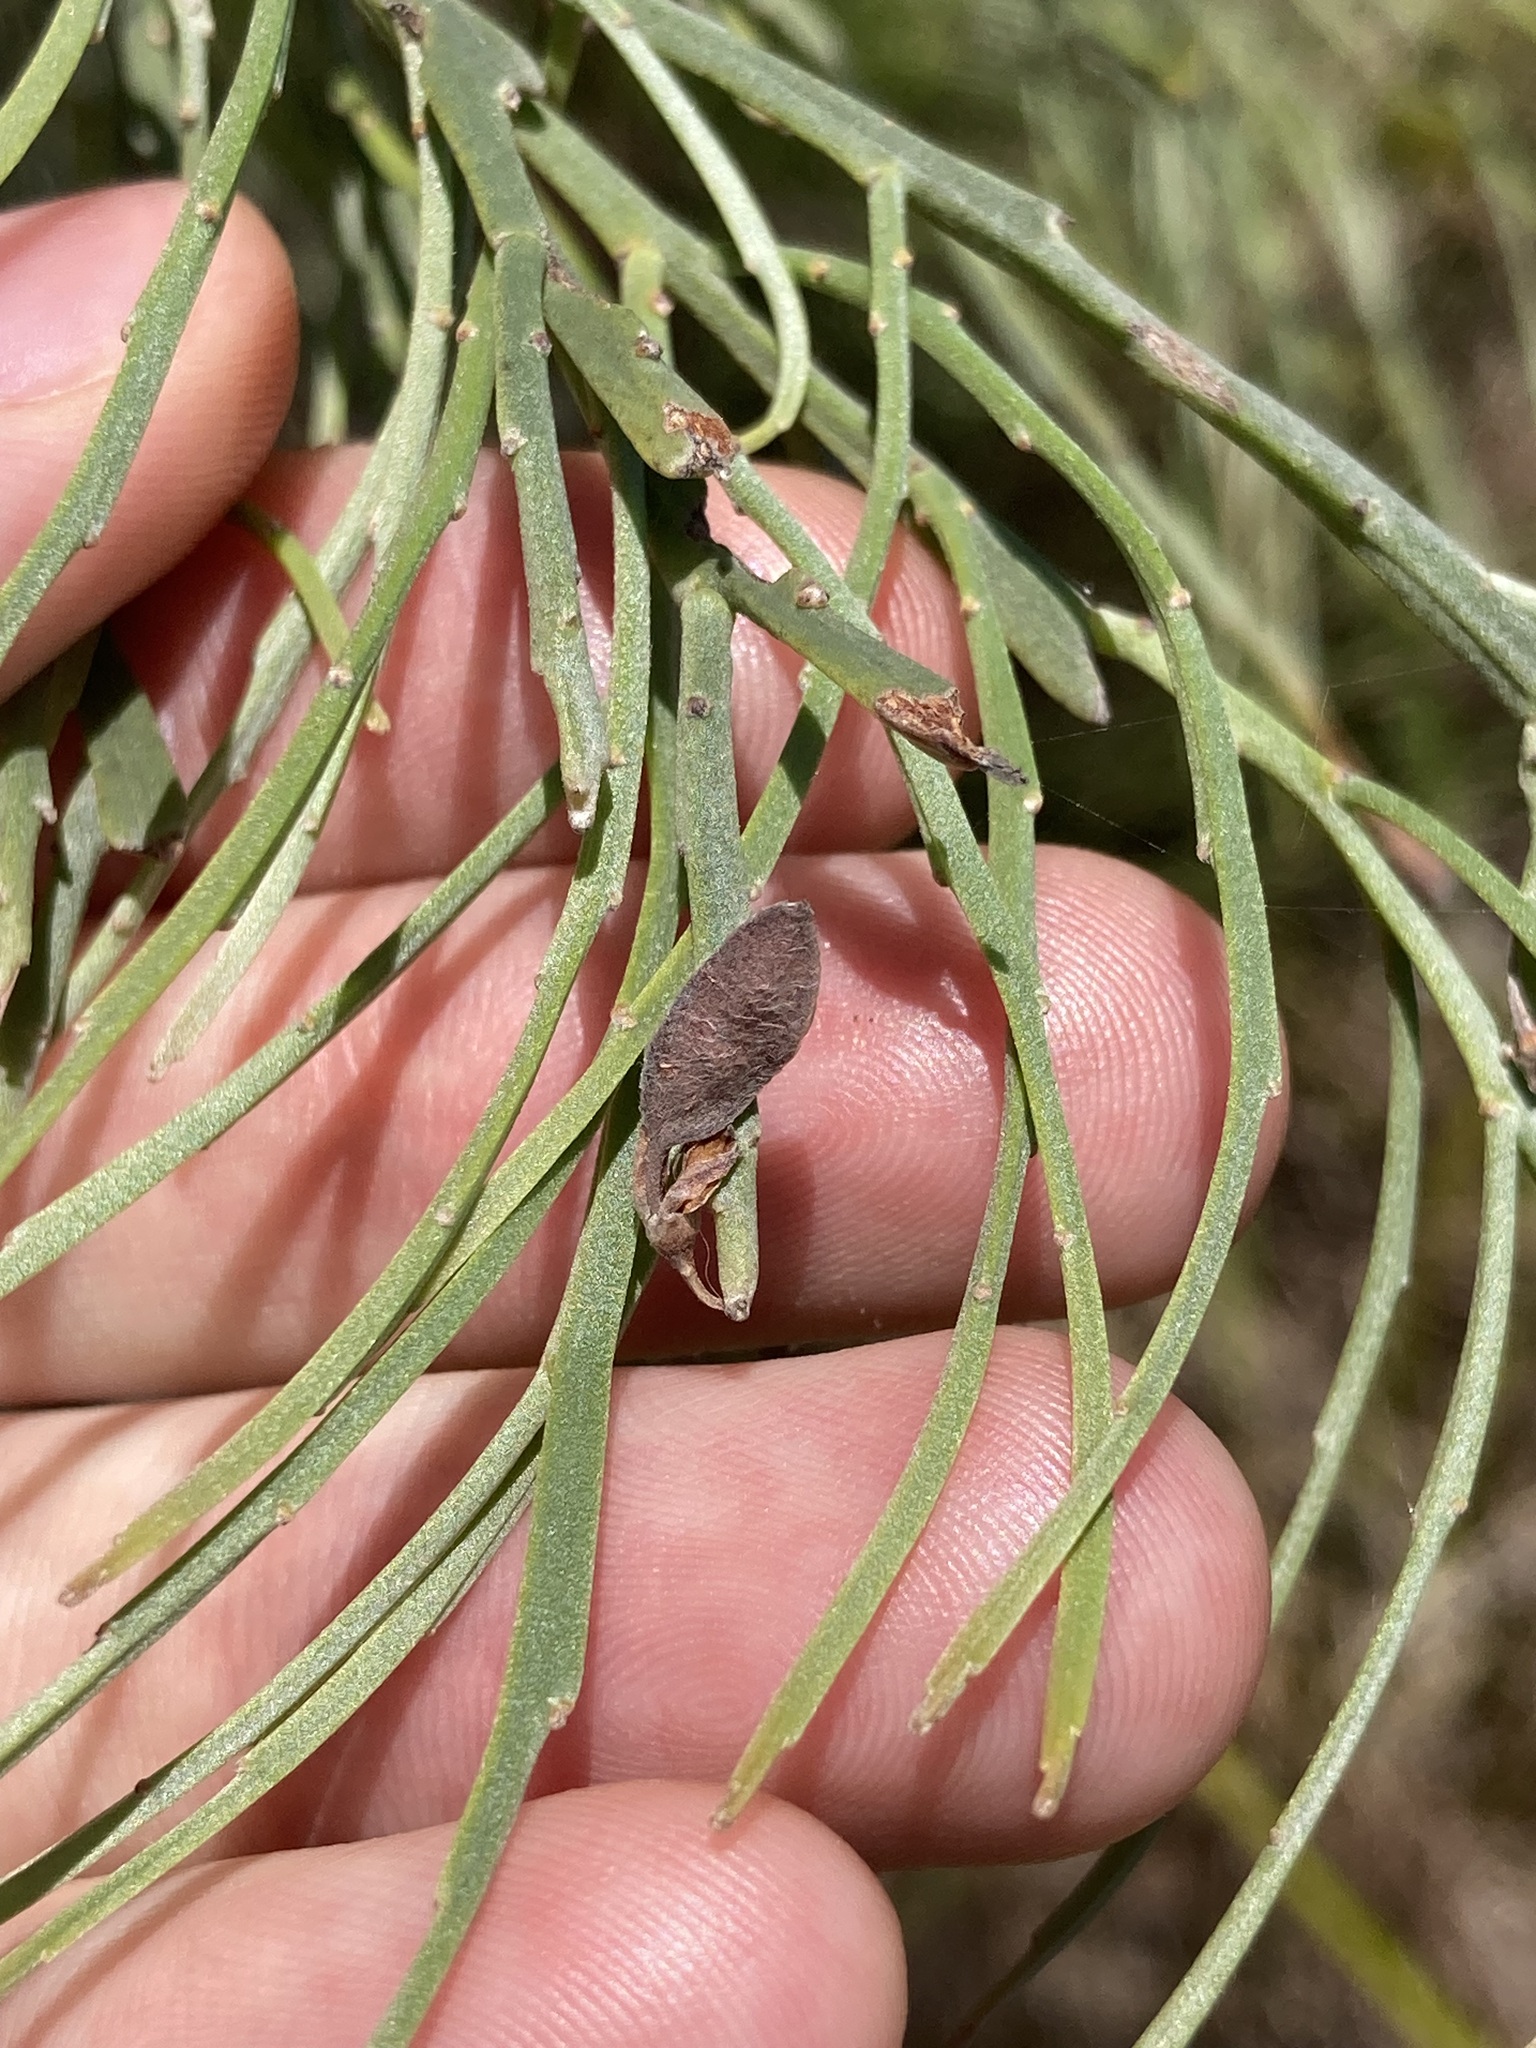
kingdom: Plantae
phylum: Tracheophyta
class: Magnoliopsida
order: Fabales
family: Fabaceae
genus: Jacksonia
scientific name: Jacksonia scoparia
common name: Dogwood
